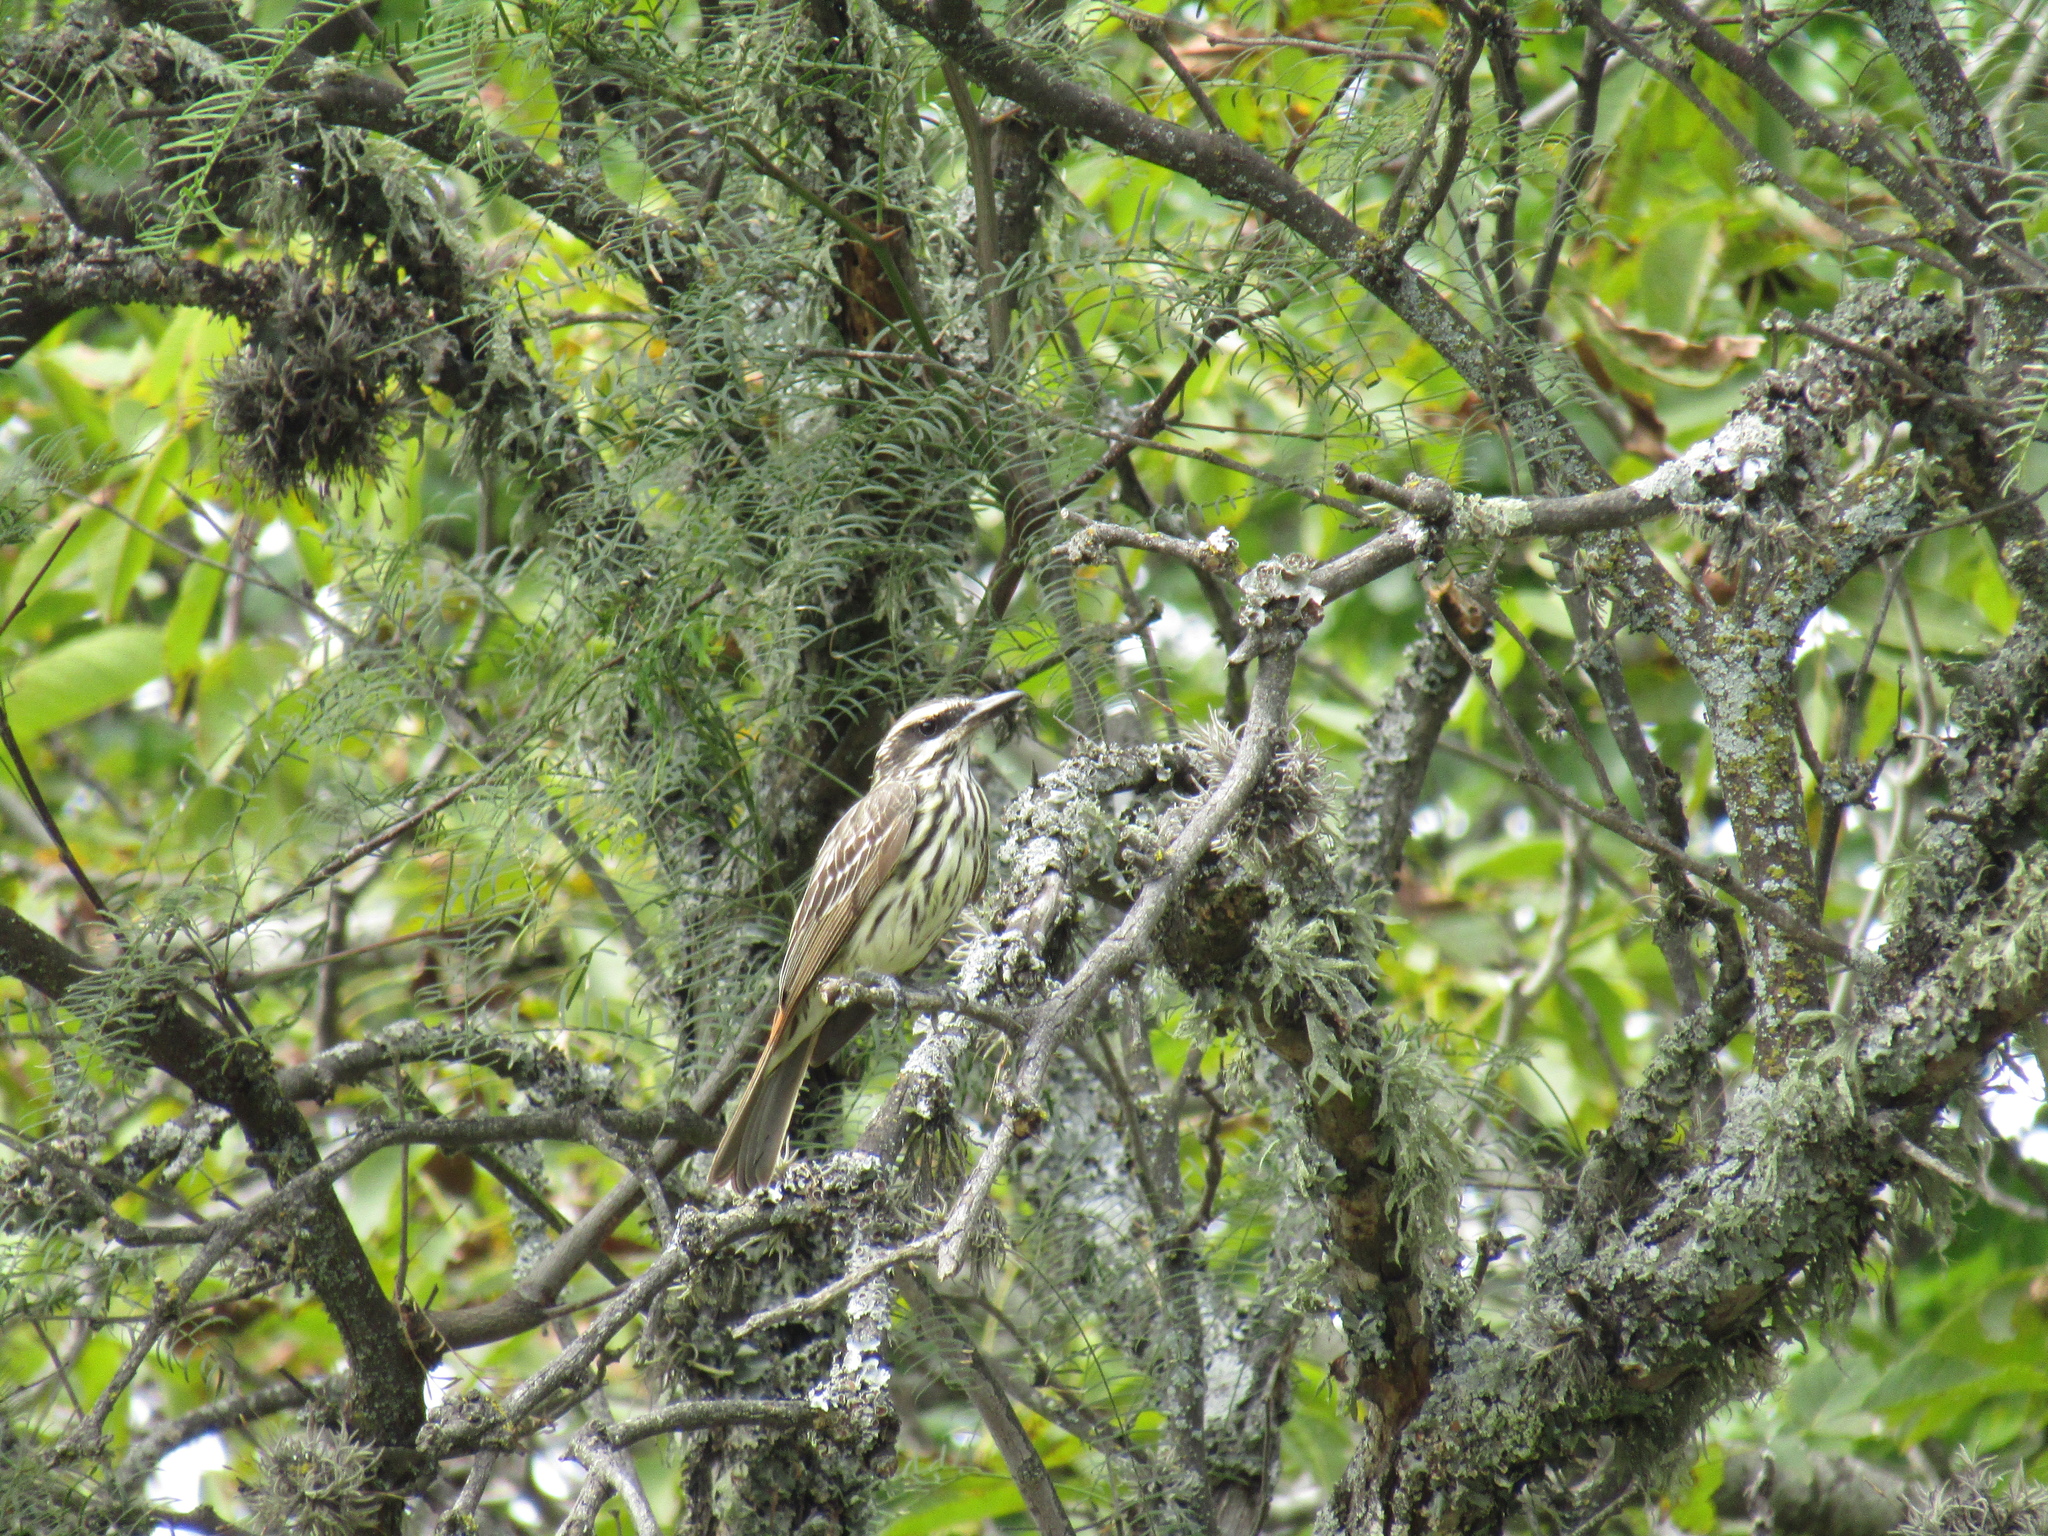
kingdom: Animalia
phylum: Chordata
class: Aves
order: Passeriformes
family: Tyrannidae
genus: Myiodynastes
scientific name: Myiodynastes maculatus
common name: Streaked flycatcher
